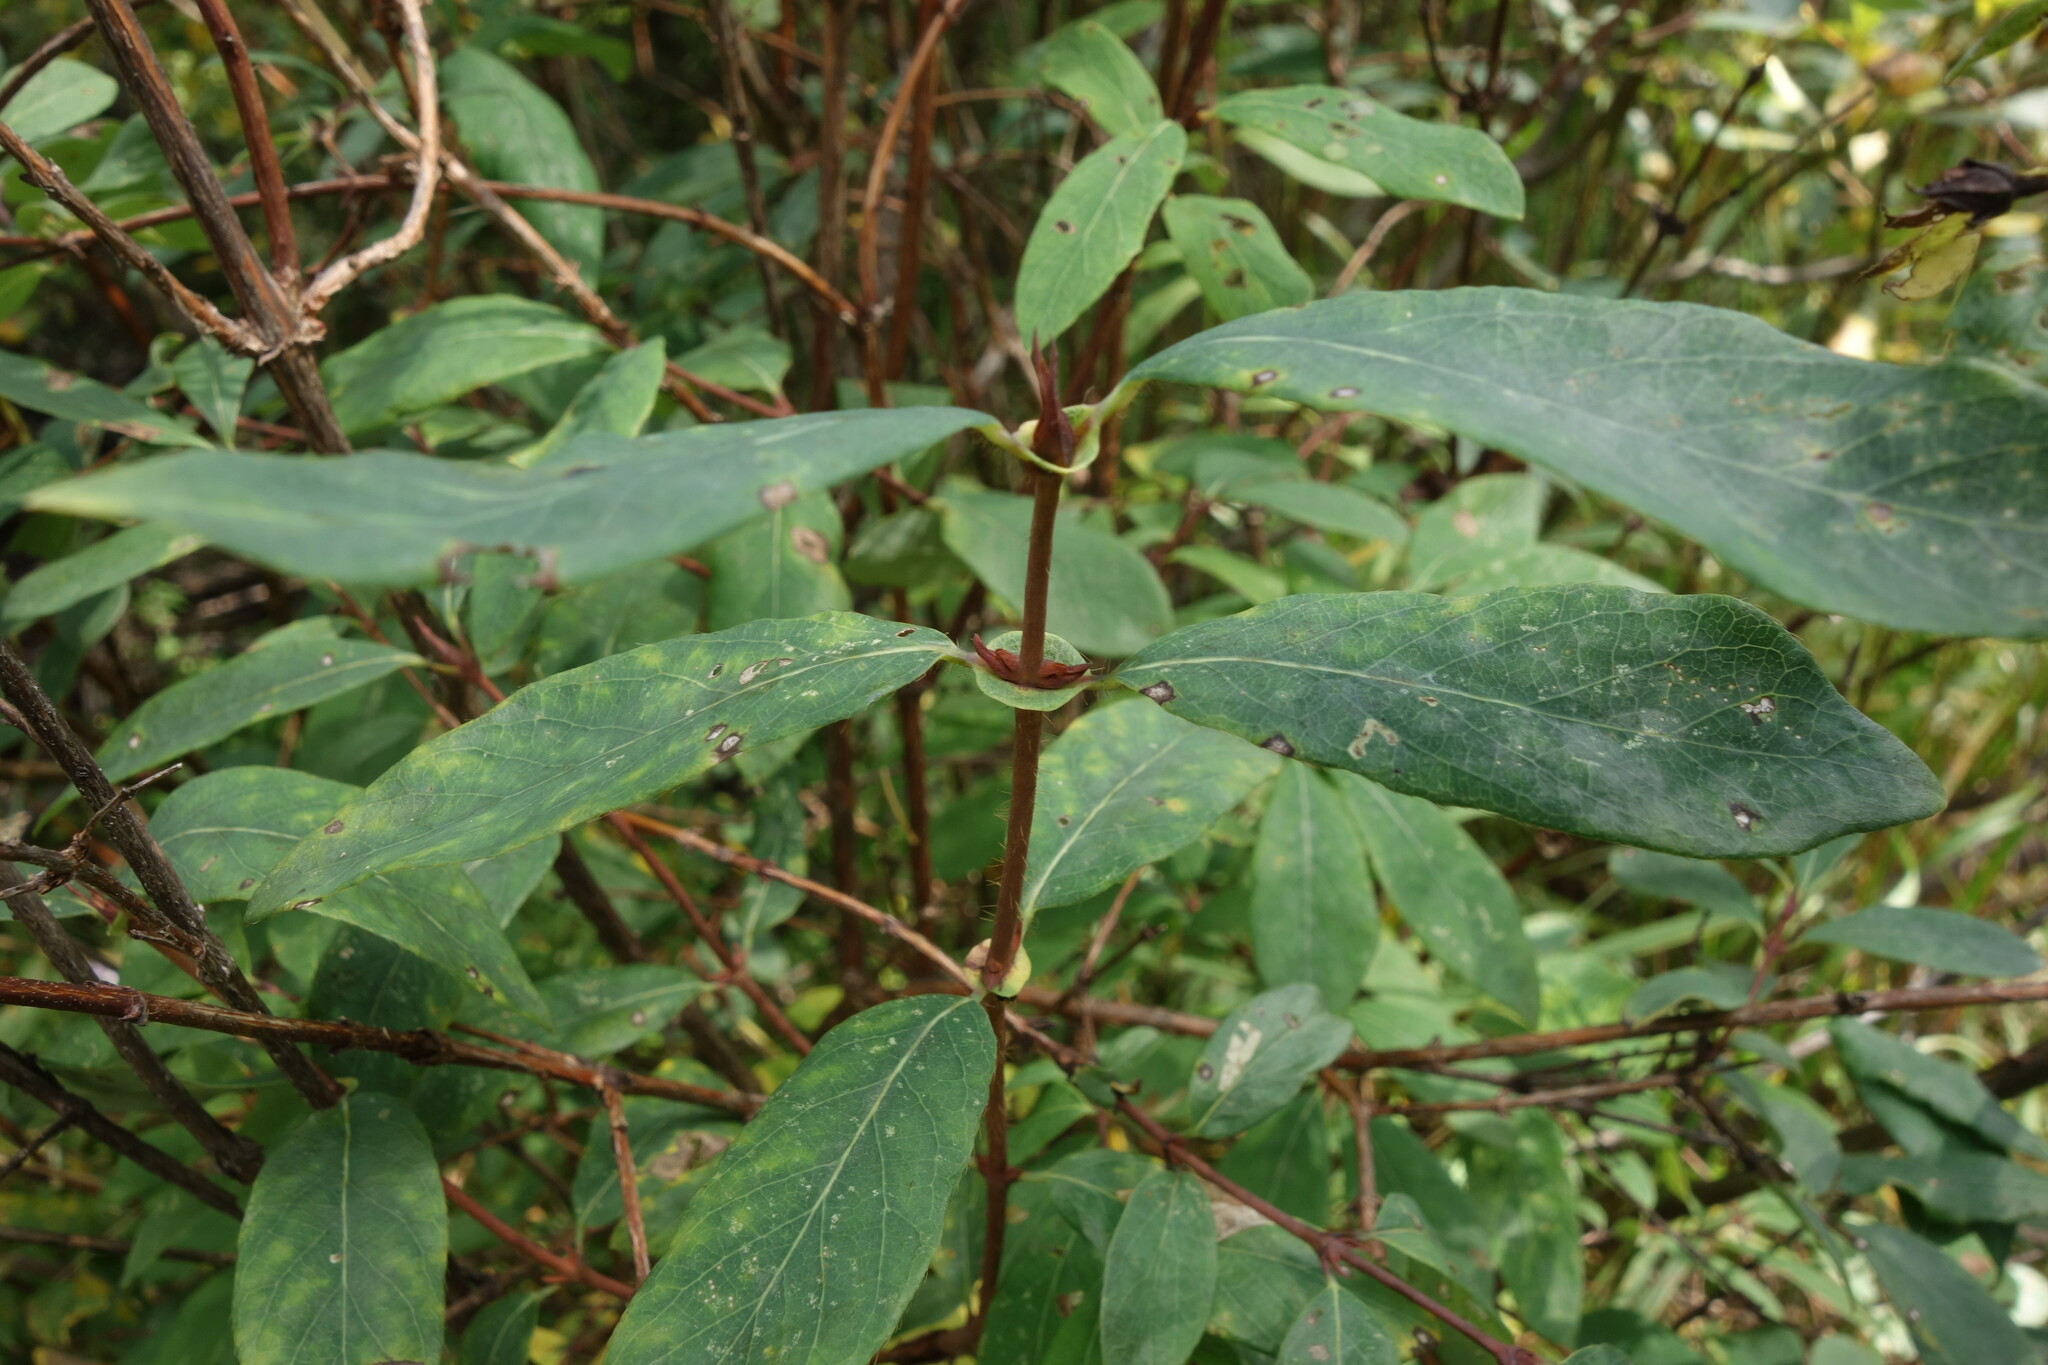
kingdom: Plantae
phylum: Tracheophyta
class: Magnoliopsida
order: Dipsacales
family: Caprifoliaceae
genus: Lonicera
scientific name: Lonicera caerulea
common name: Blue honeysuckle
